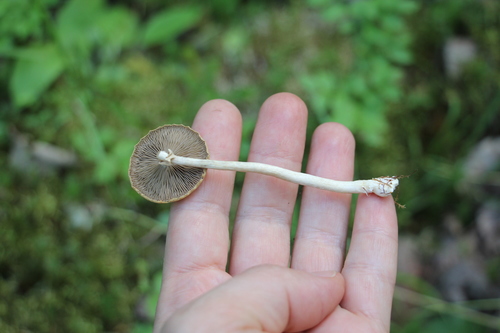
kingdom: Fungi
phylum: Basidiomycota
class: Agaricomycetes
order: Agaricales
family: Strophariaceae
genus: Agrocybe
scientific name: Agrocybe praecox
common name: Spring fieldcap
